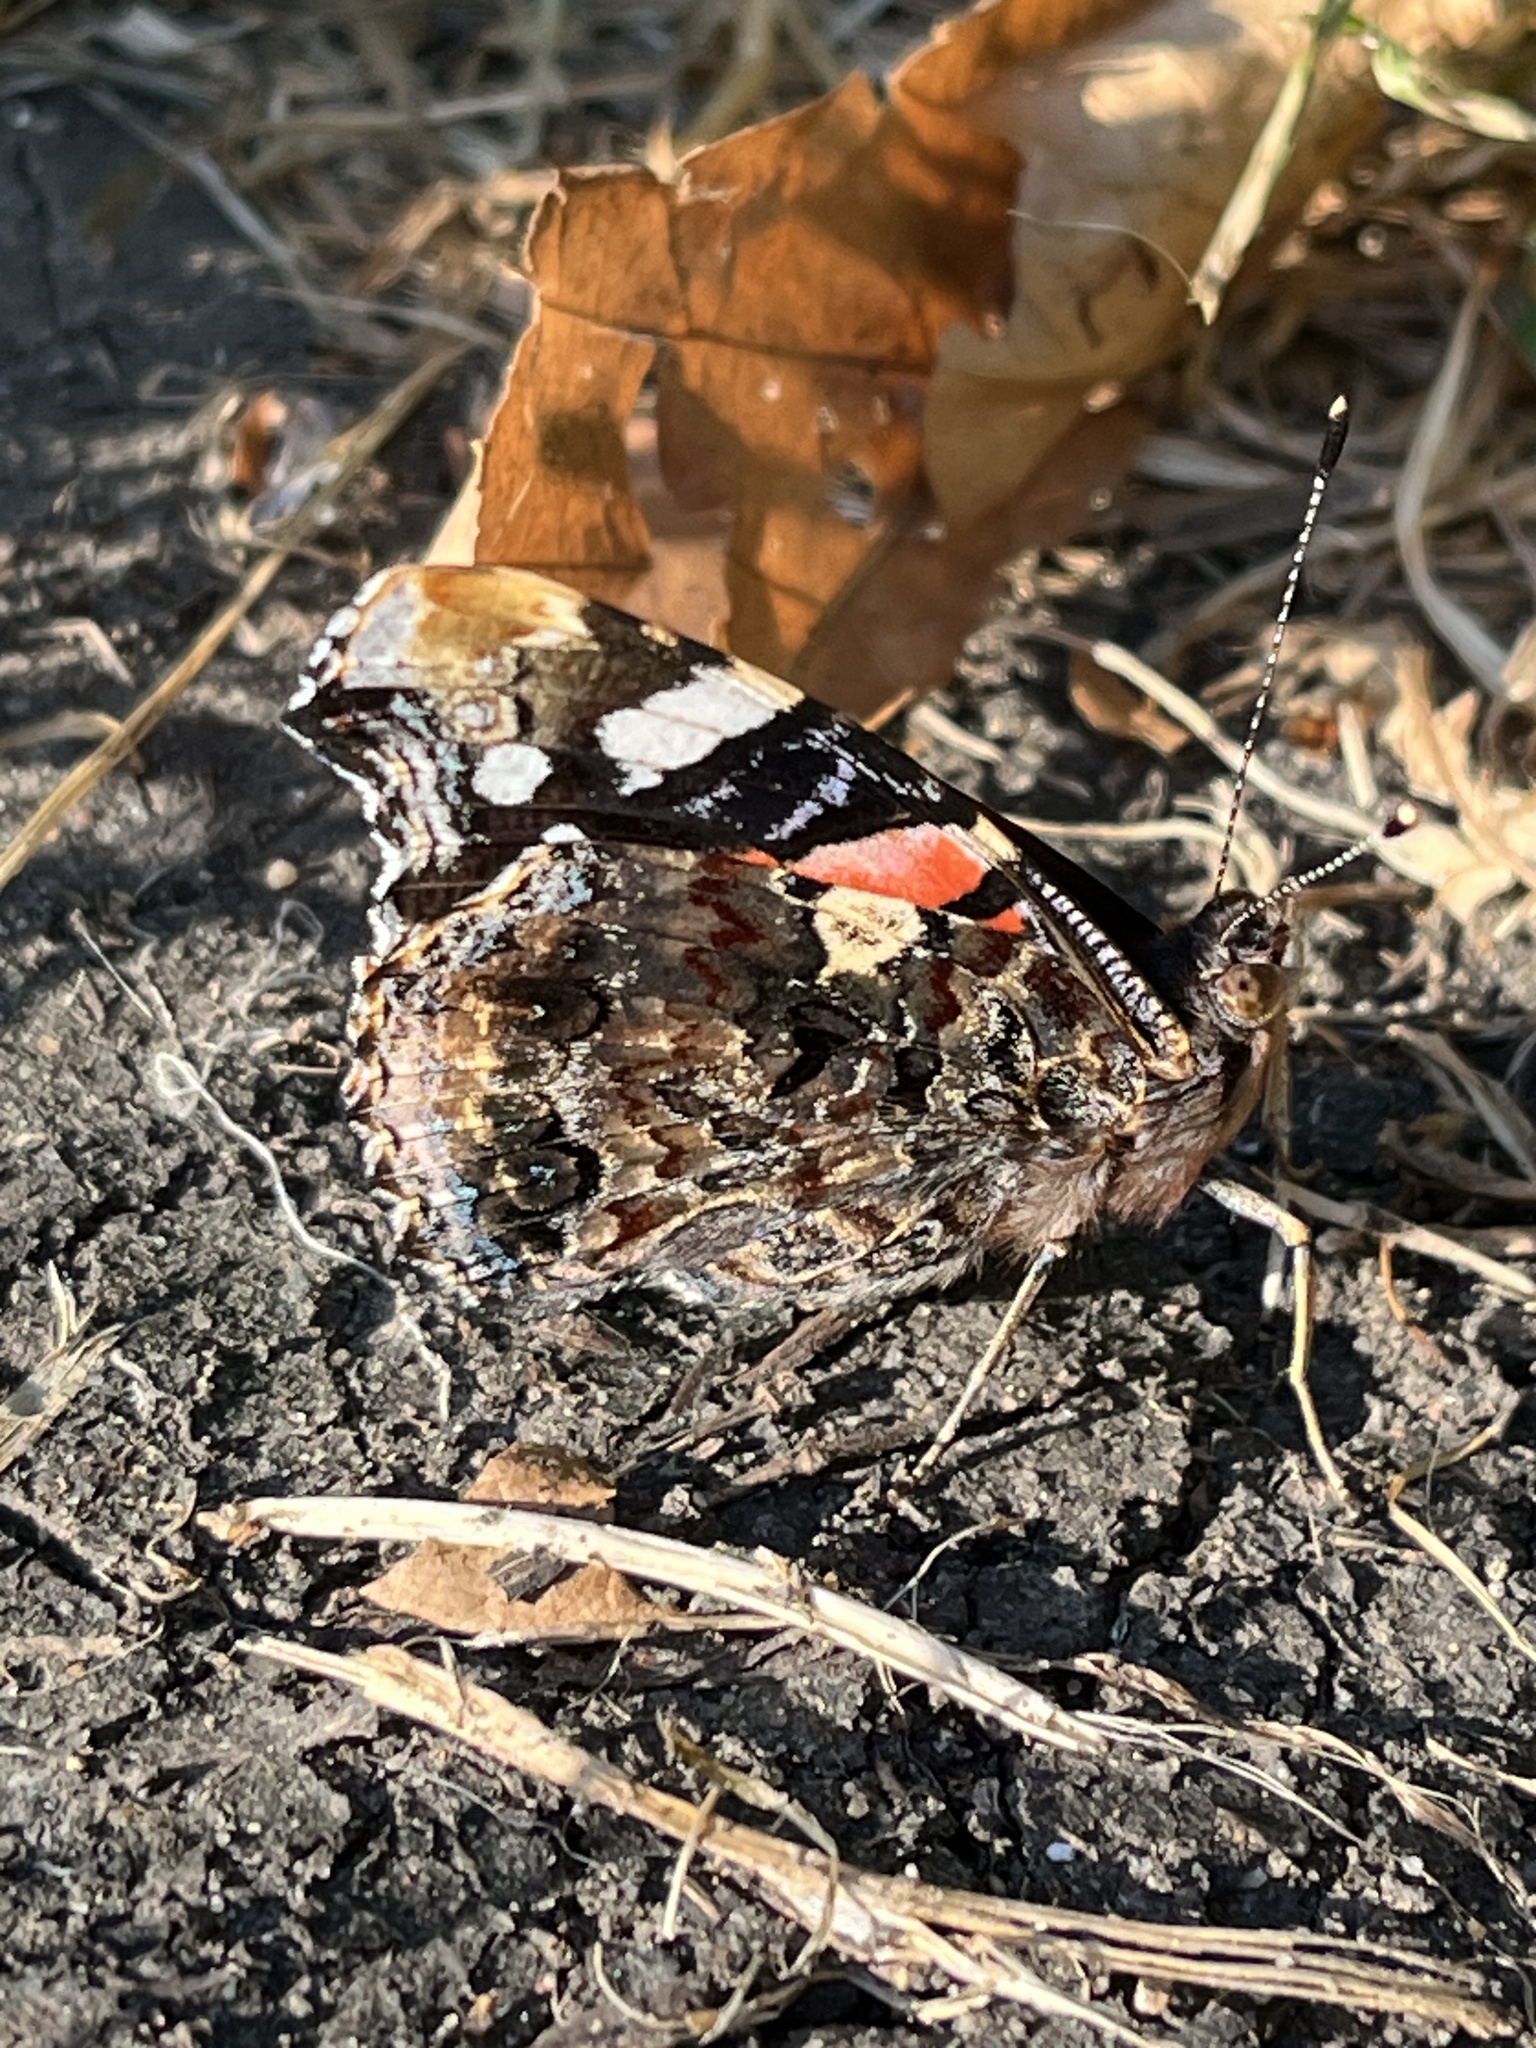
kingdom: Animalia
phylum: Arthropoda
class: Insecta
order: Lepidoptera
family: Nymphalidae
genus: Vanessa
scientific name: Vanessa atalanta
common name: Red admiral
